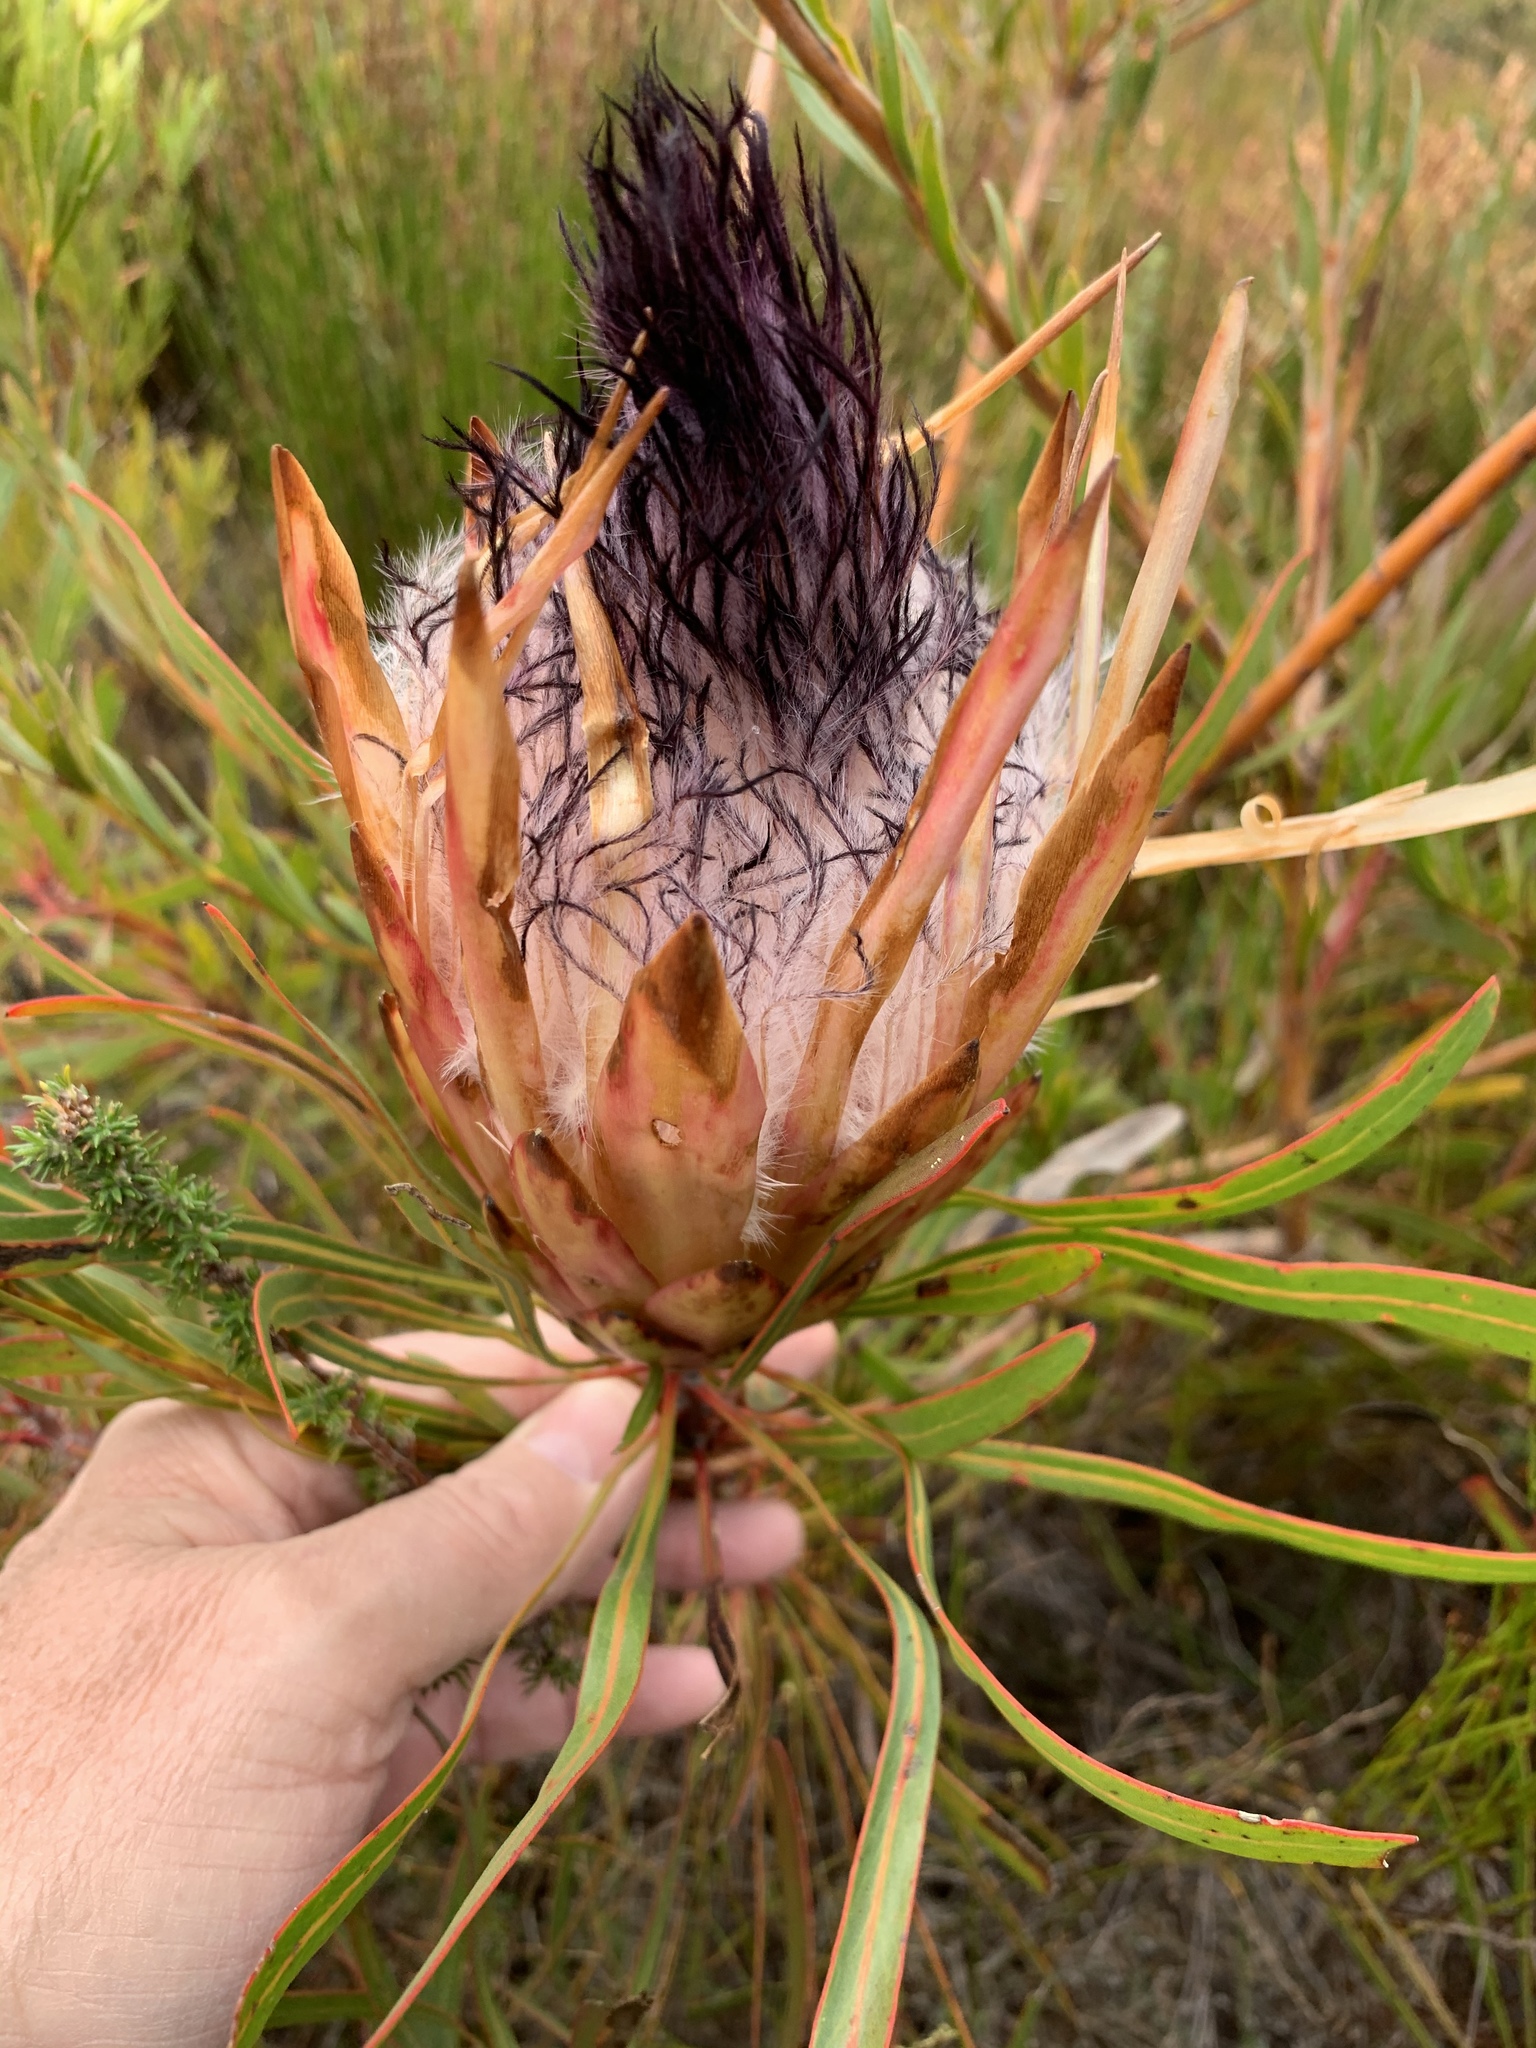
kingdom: Plantae
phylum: Tracheophyta
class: Magnoliopsida
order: Proteales
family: Proteaceae
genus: Protea
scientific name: Protea longifolia
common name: Long-leaf sugarbush
